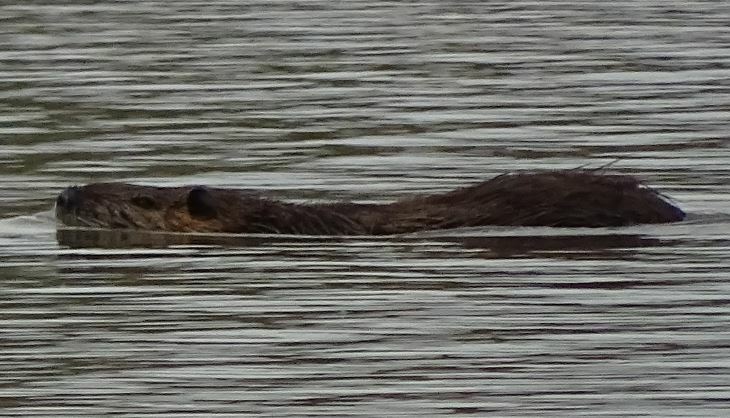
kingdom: Animalia
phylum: Chordata
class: Mammalia
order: Rodentia
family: Myocastoridae
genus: Myocastor
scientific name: Myocastor coypus
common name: Coypu
